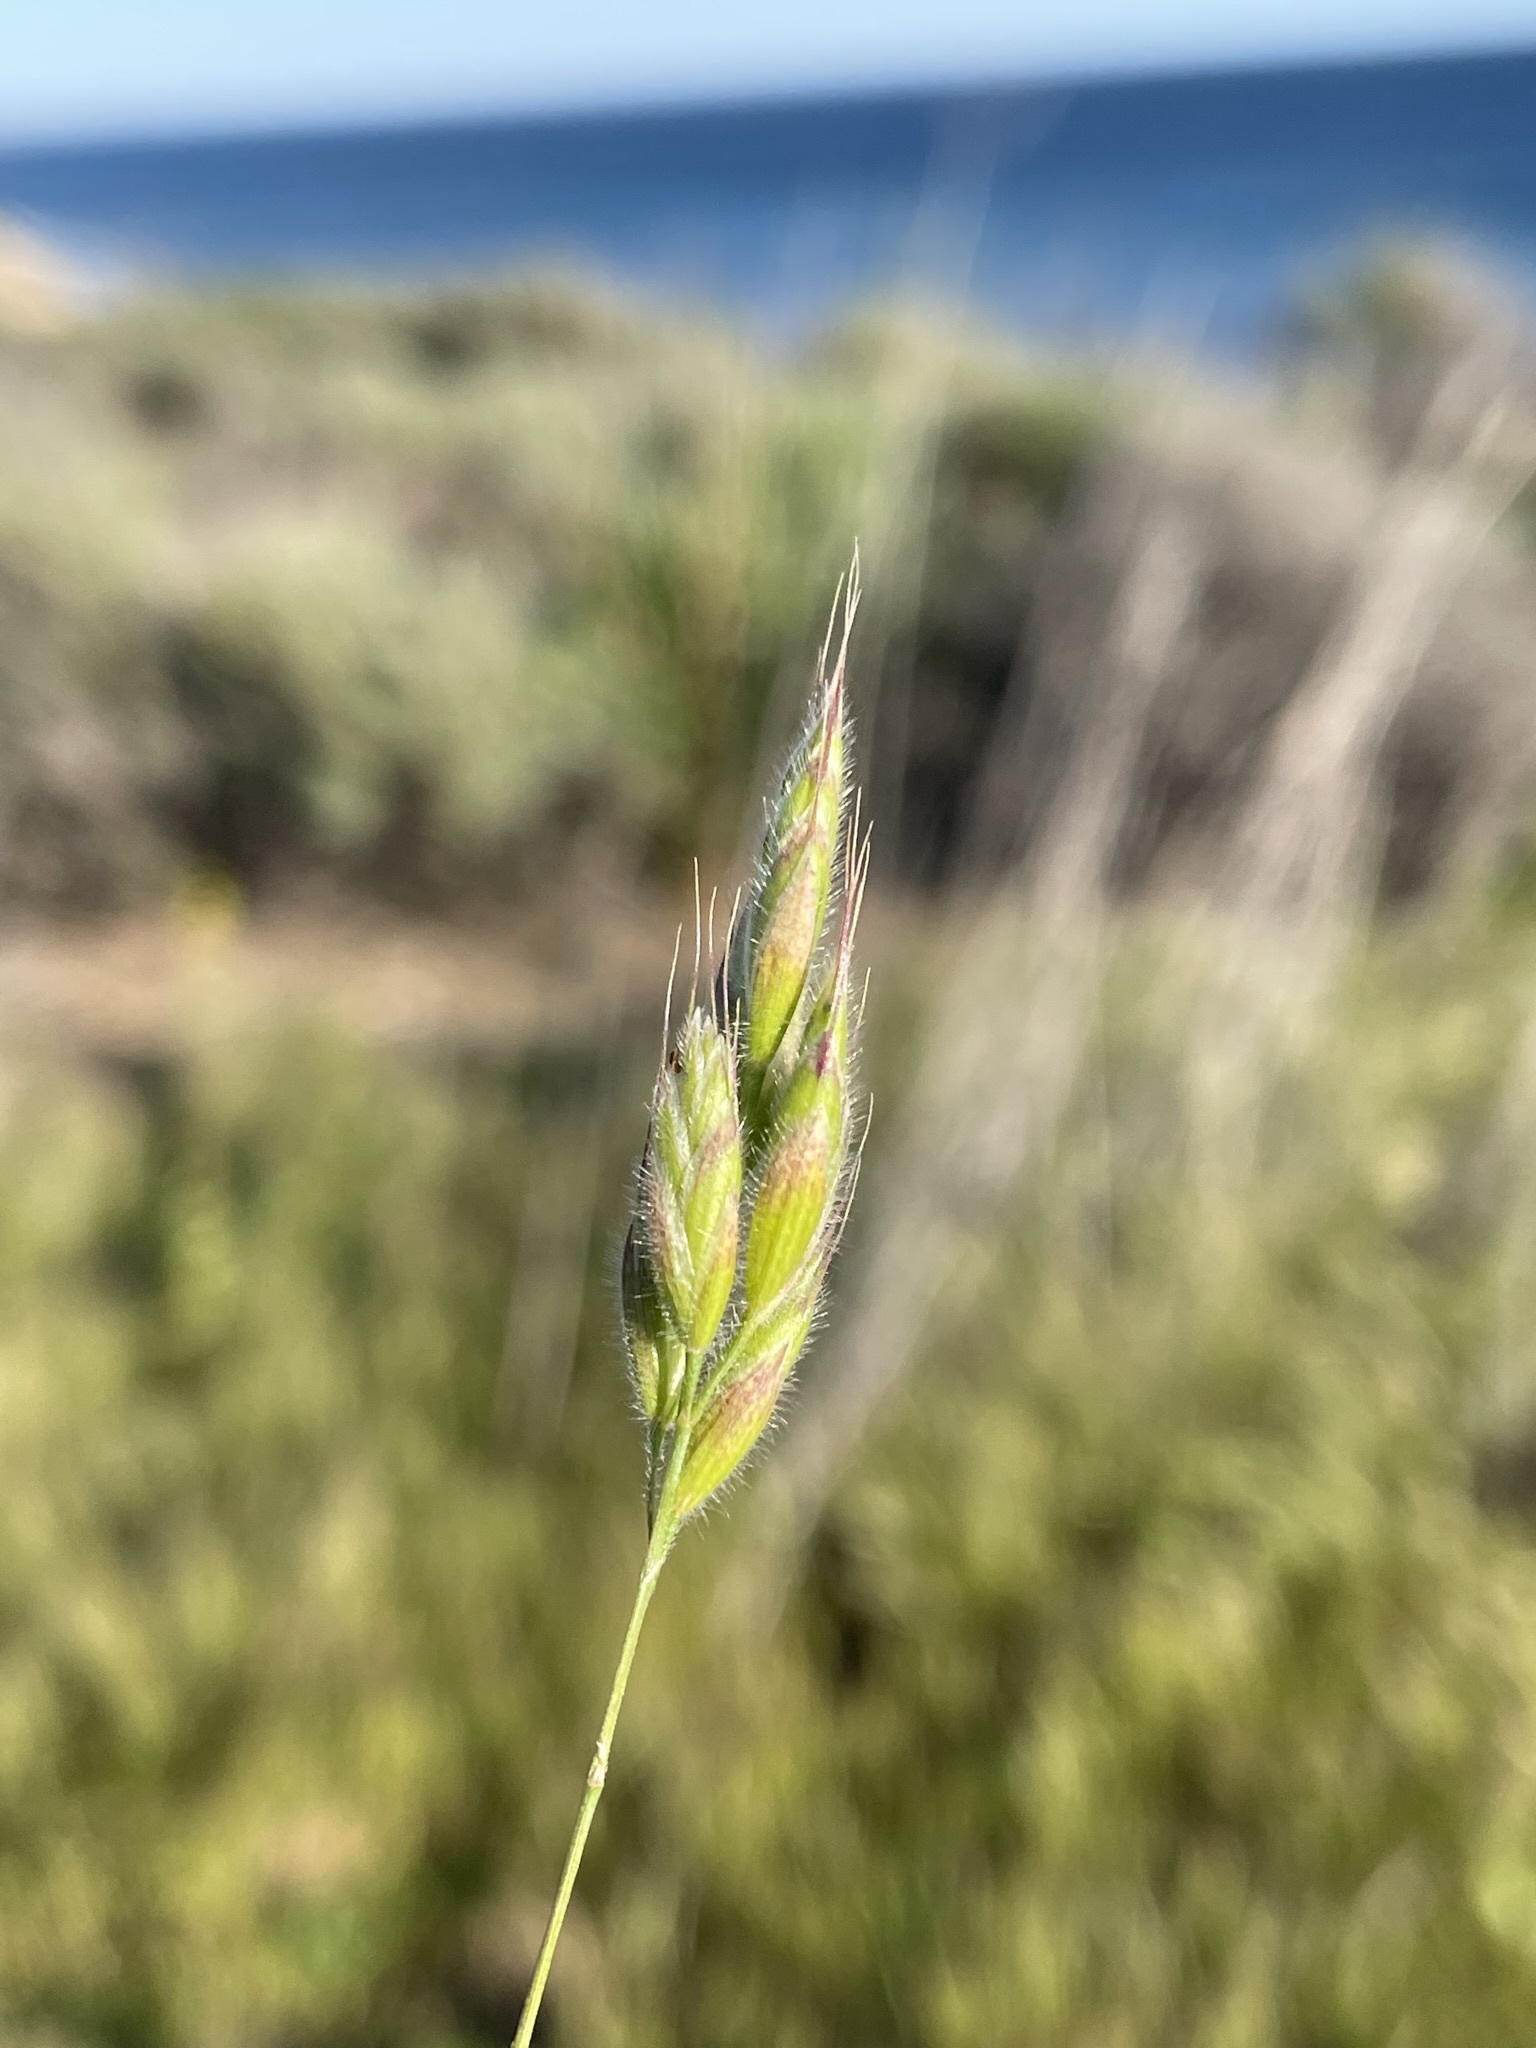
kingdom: Plantae
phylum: Tracheophyta
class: Liliopsida
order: Poales
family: Poaceae
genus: Bromus
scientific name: Bromus hordeaceus
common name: Soft brome
